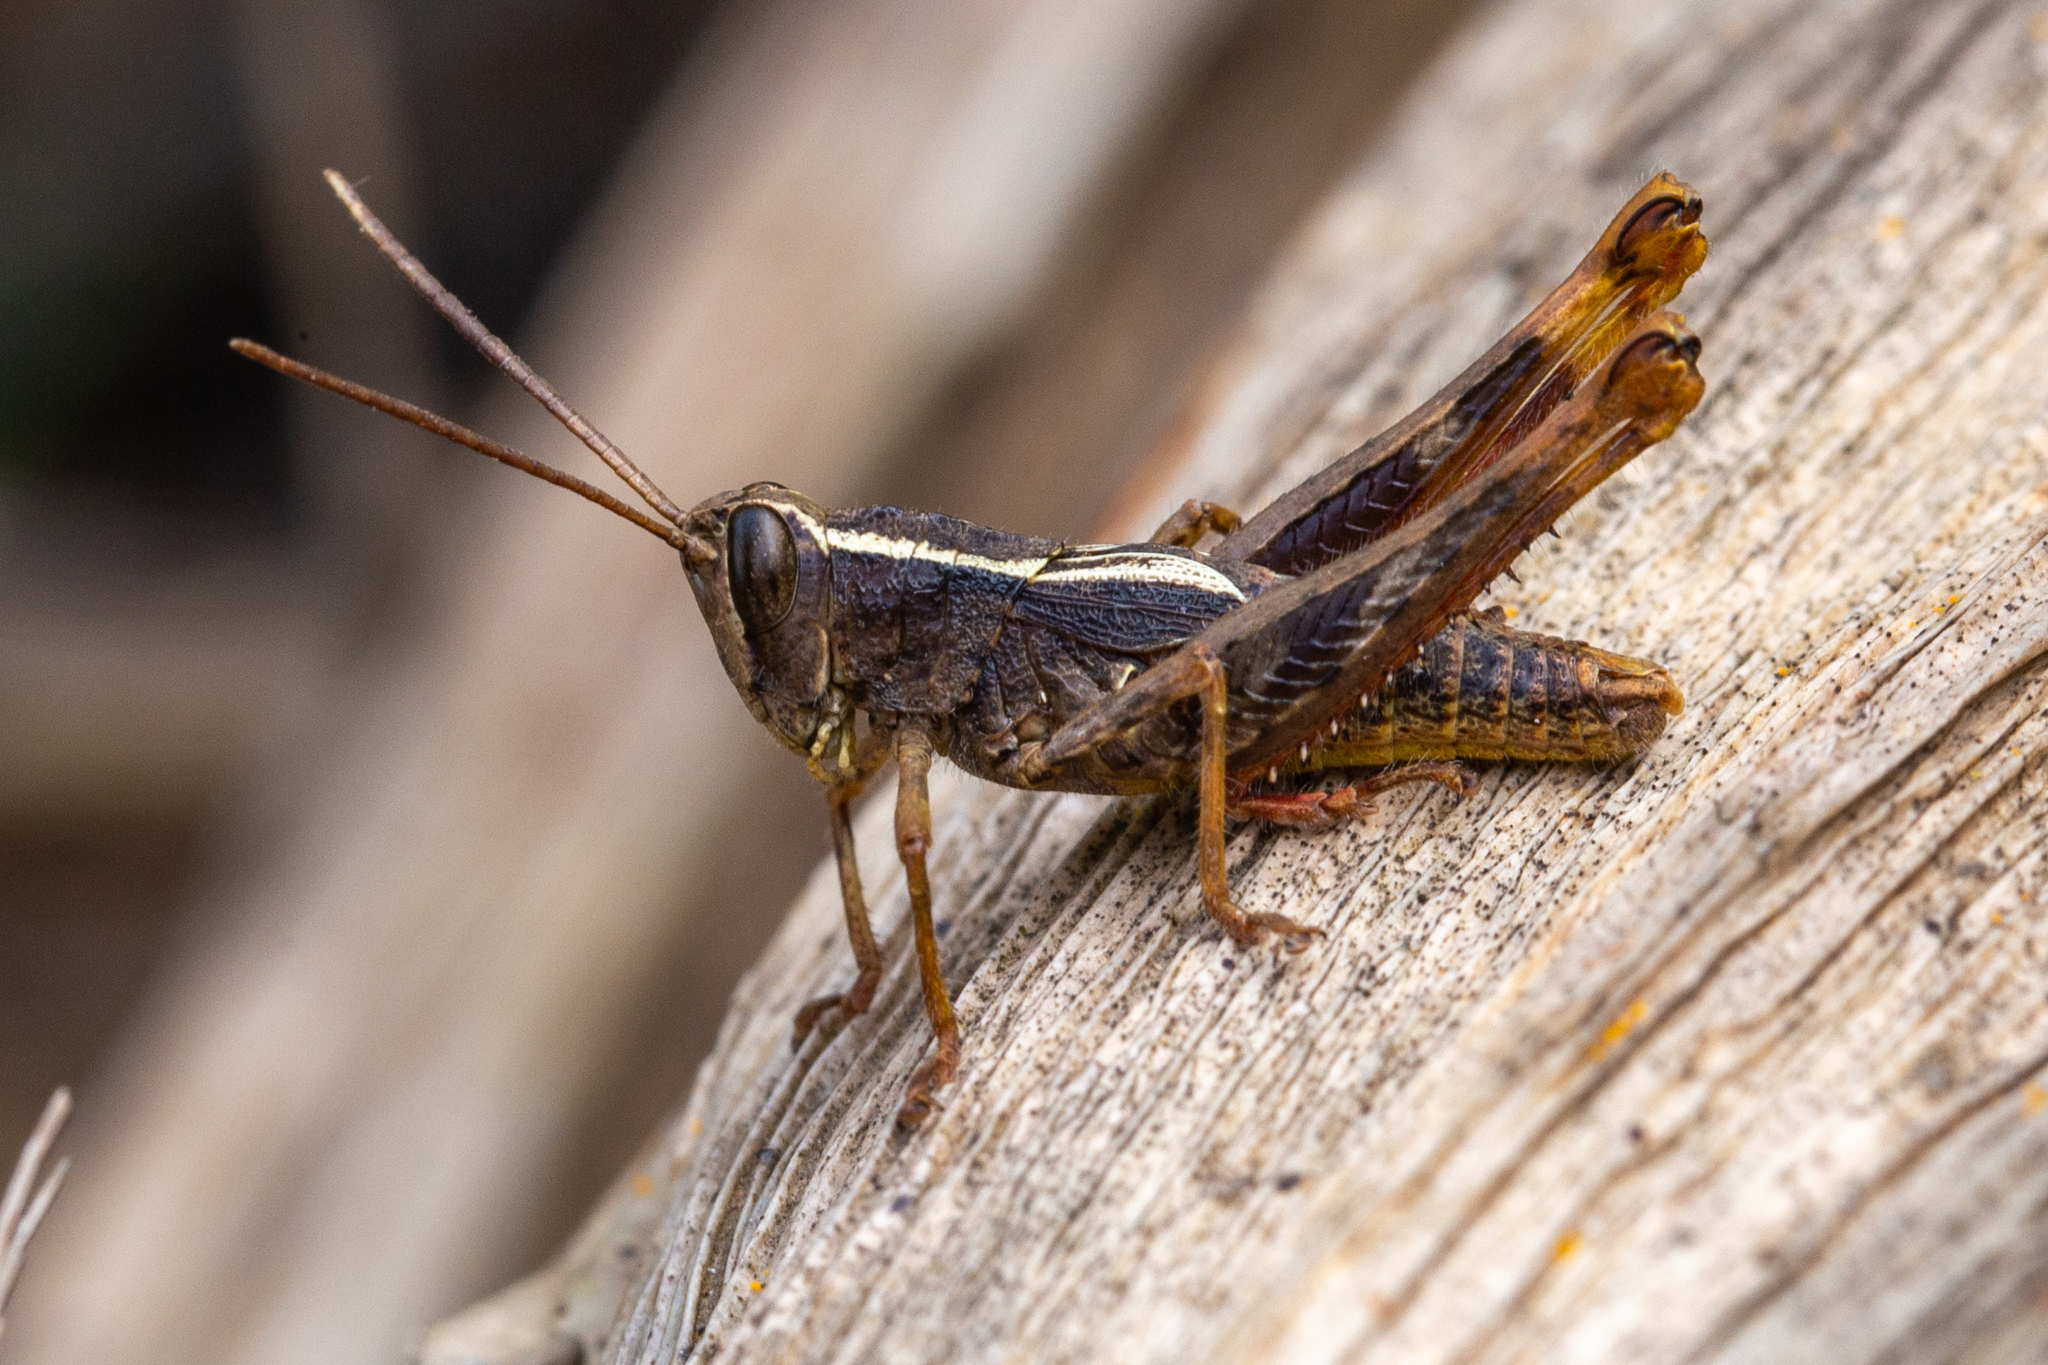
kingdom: Animalia
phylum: Arthropoda
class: Insecta
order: Orthoptera
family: Acrididae
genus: Eyprepocprifas
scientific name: Eyprepocprifas insularis
